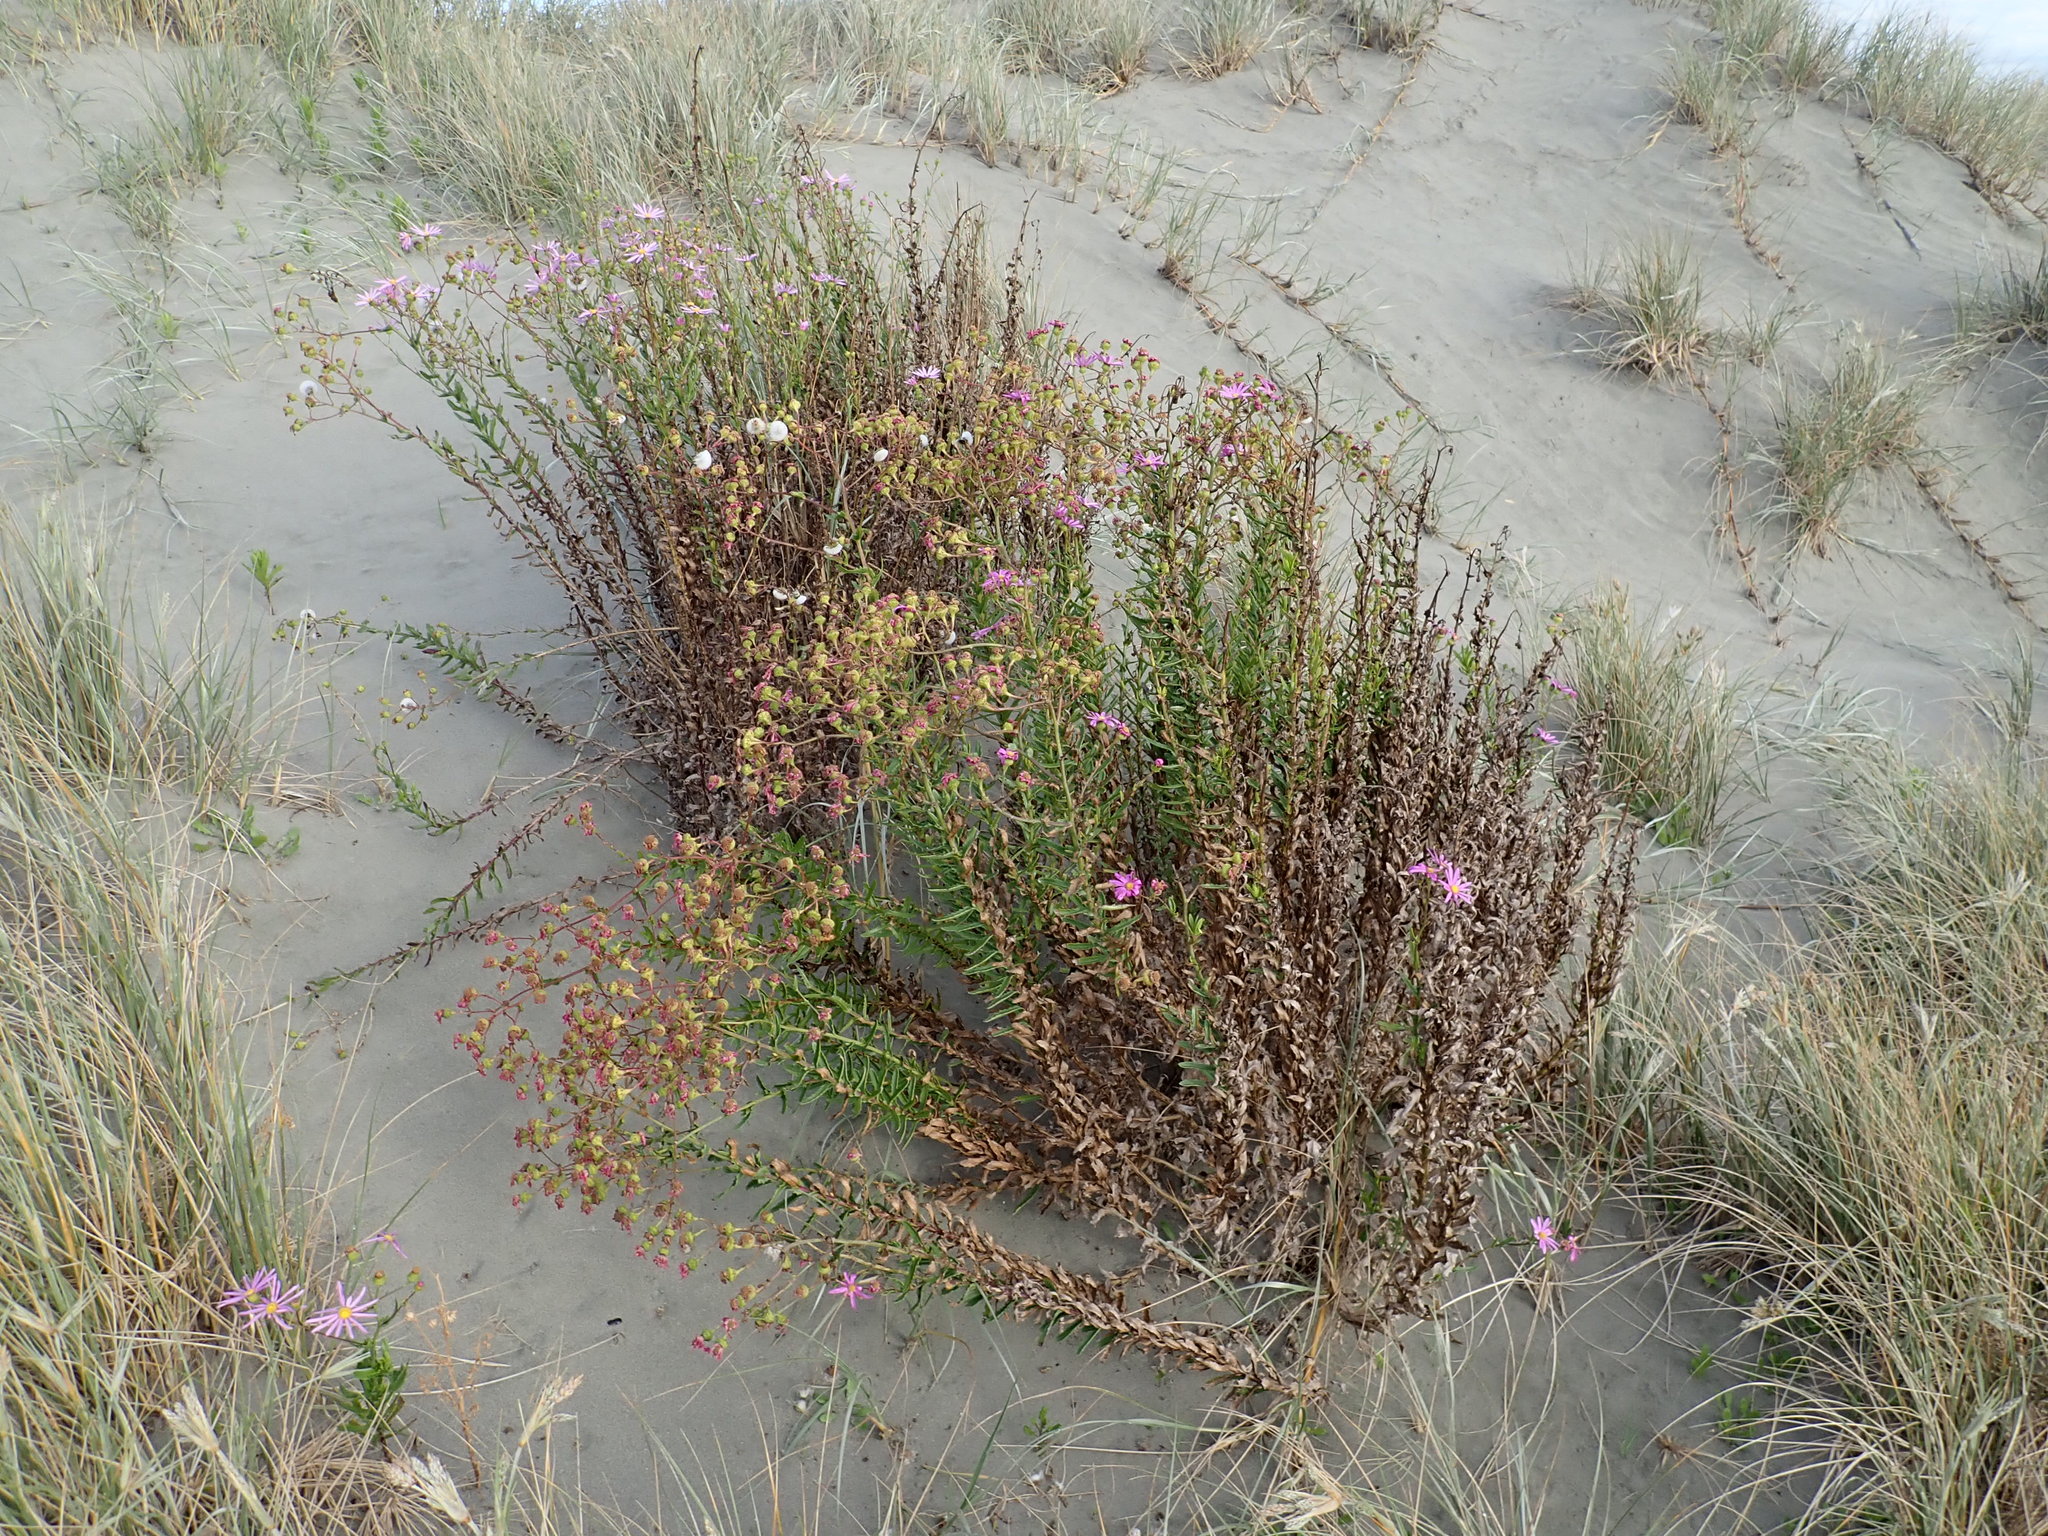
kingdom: Plantae
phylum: Tracheophyta
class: Magnoliopsida
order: Asterales
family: Asteraceae
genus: Senecio
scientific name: Senecio glastifolius
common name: Woad-leaved ragwort
